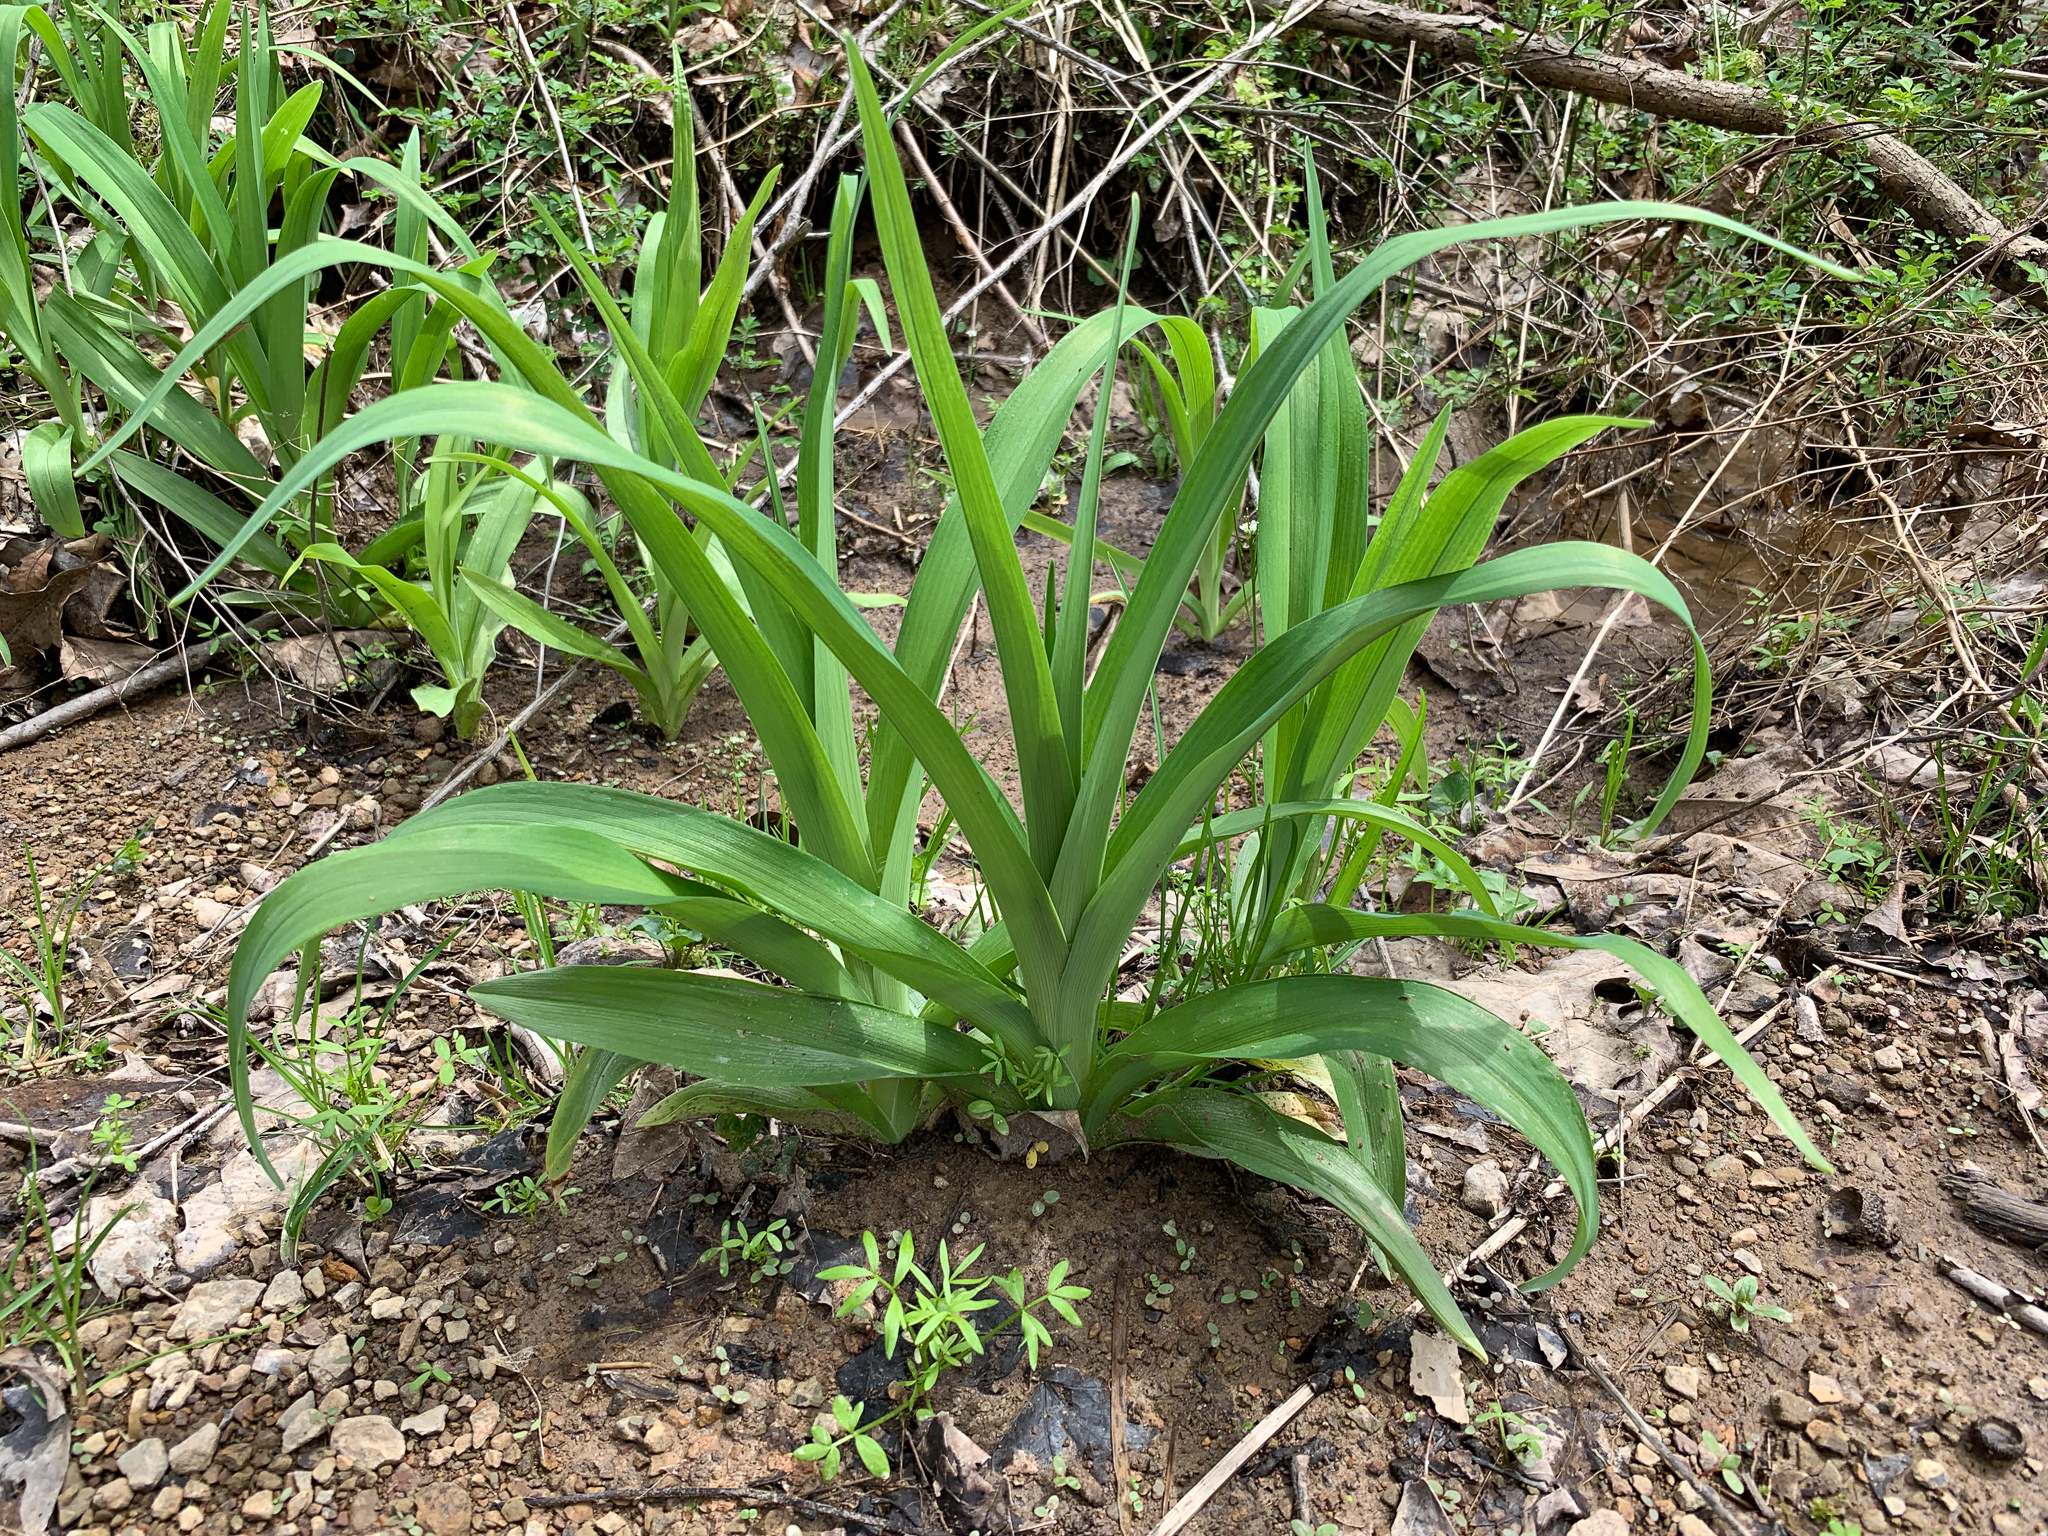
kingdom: Plantae
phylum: Tracheophyta
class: Liliopsida
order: Asparagales
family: Iridaceae
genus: Iris
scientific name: Iris pseudacorus
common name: Yellow flag
